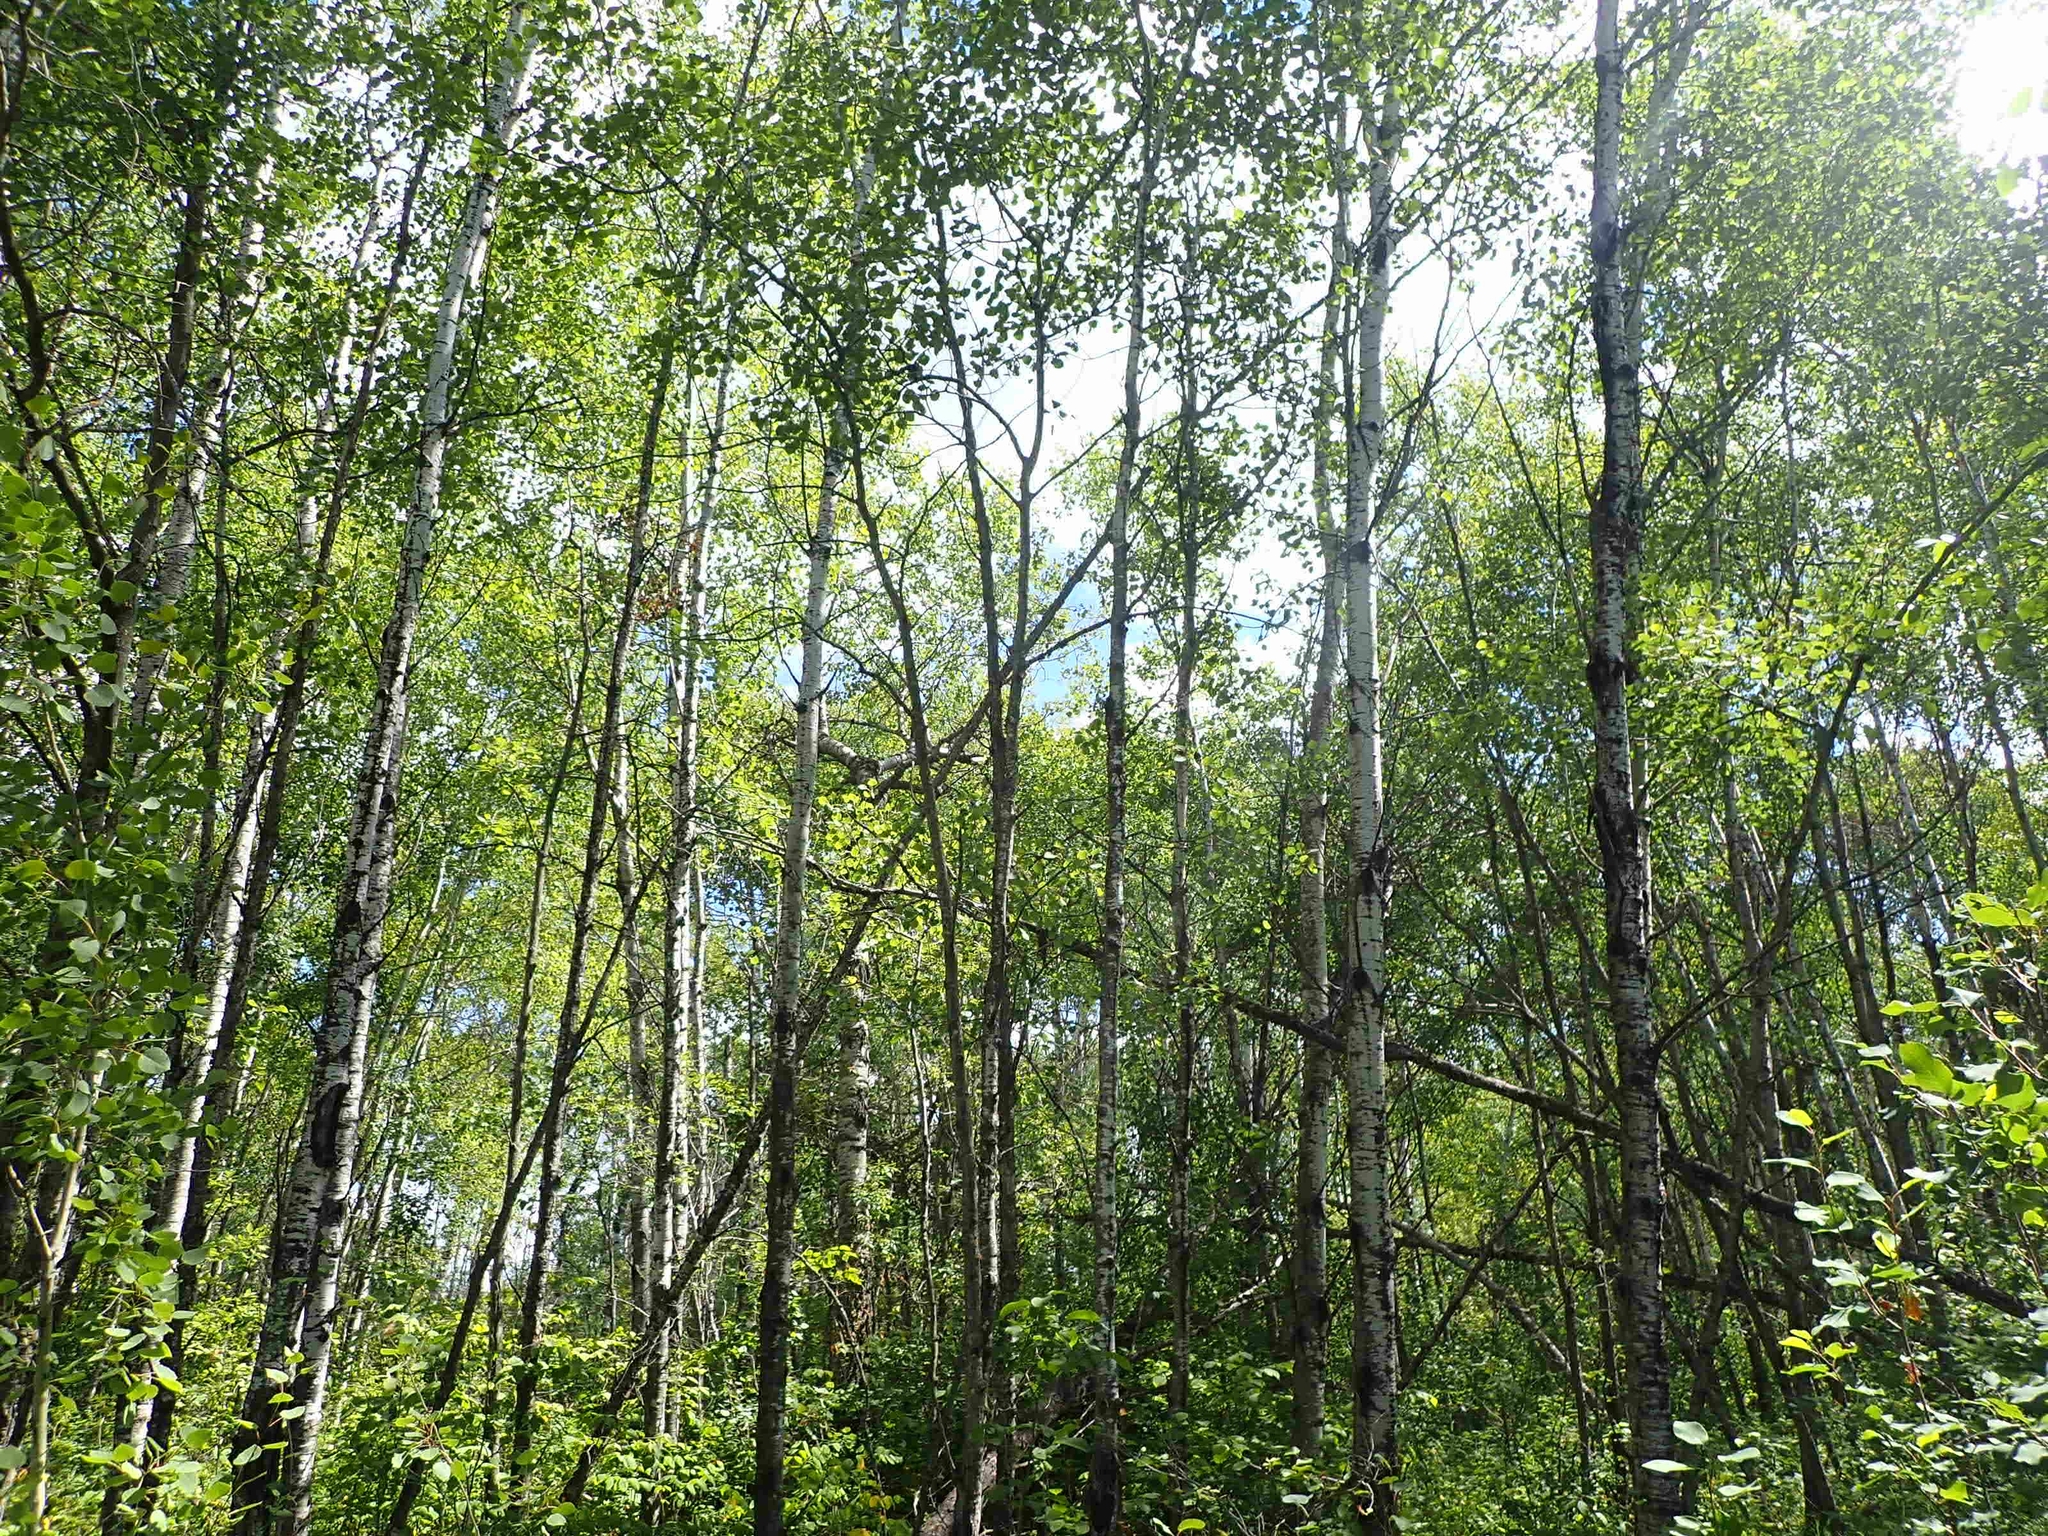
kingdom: Plantae
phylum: Tracheophyta
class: Magnoliopsida
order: Malpighiales
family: Salicaceae
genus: Populus
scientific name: Populus tremuloides
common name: Quaking aspen
